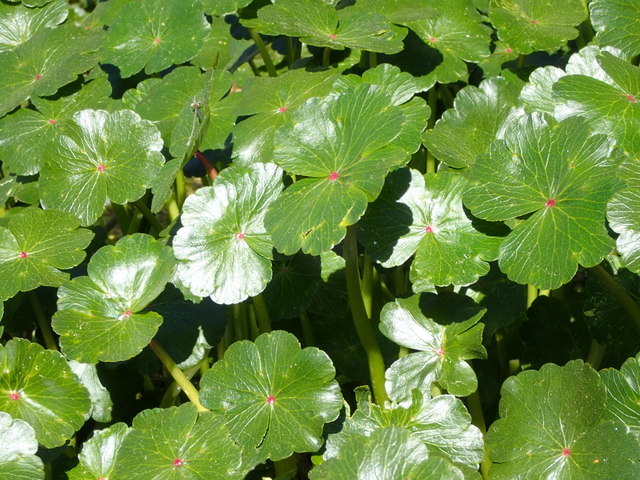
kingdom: Plantae
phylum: Tracheophyta
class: Magnoliopsida
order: Apiales
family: Araliaceae
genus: Hydrocotyle
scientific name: Hydrocotyle ranunculoides
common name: Floating pennywort
